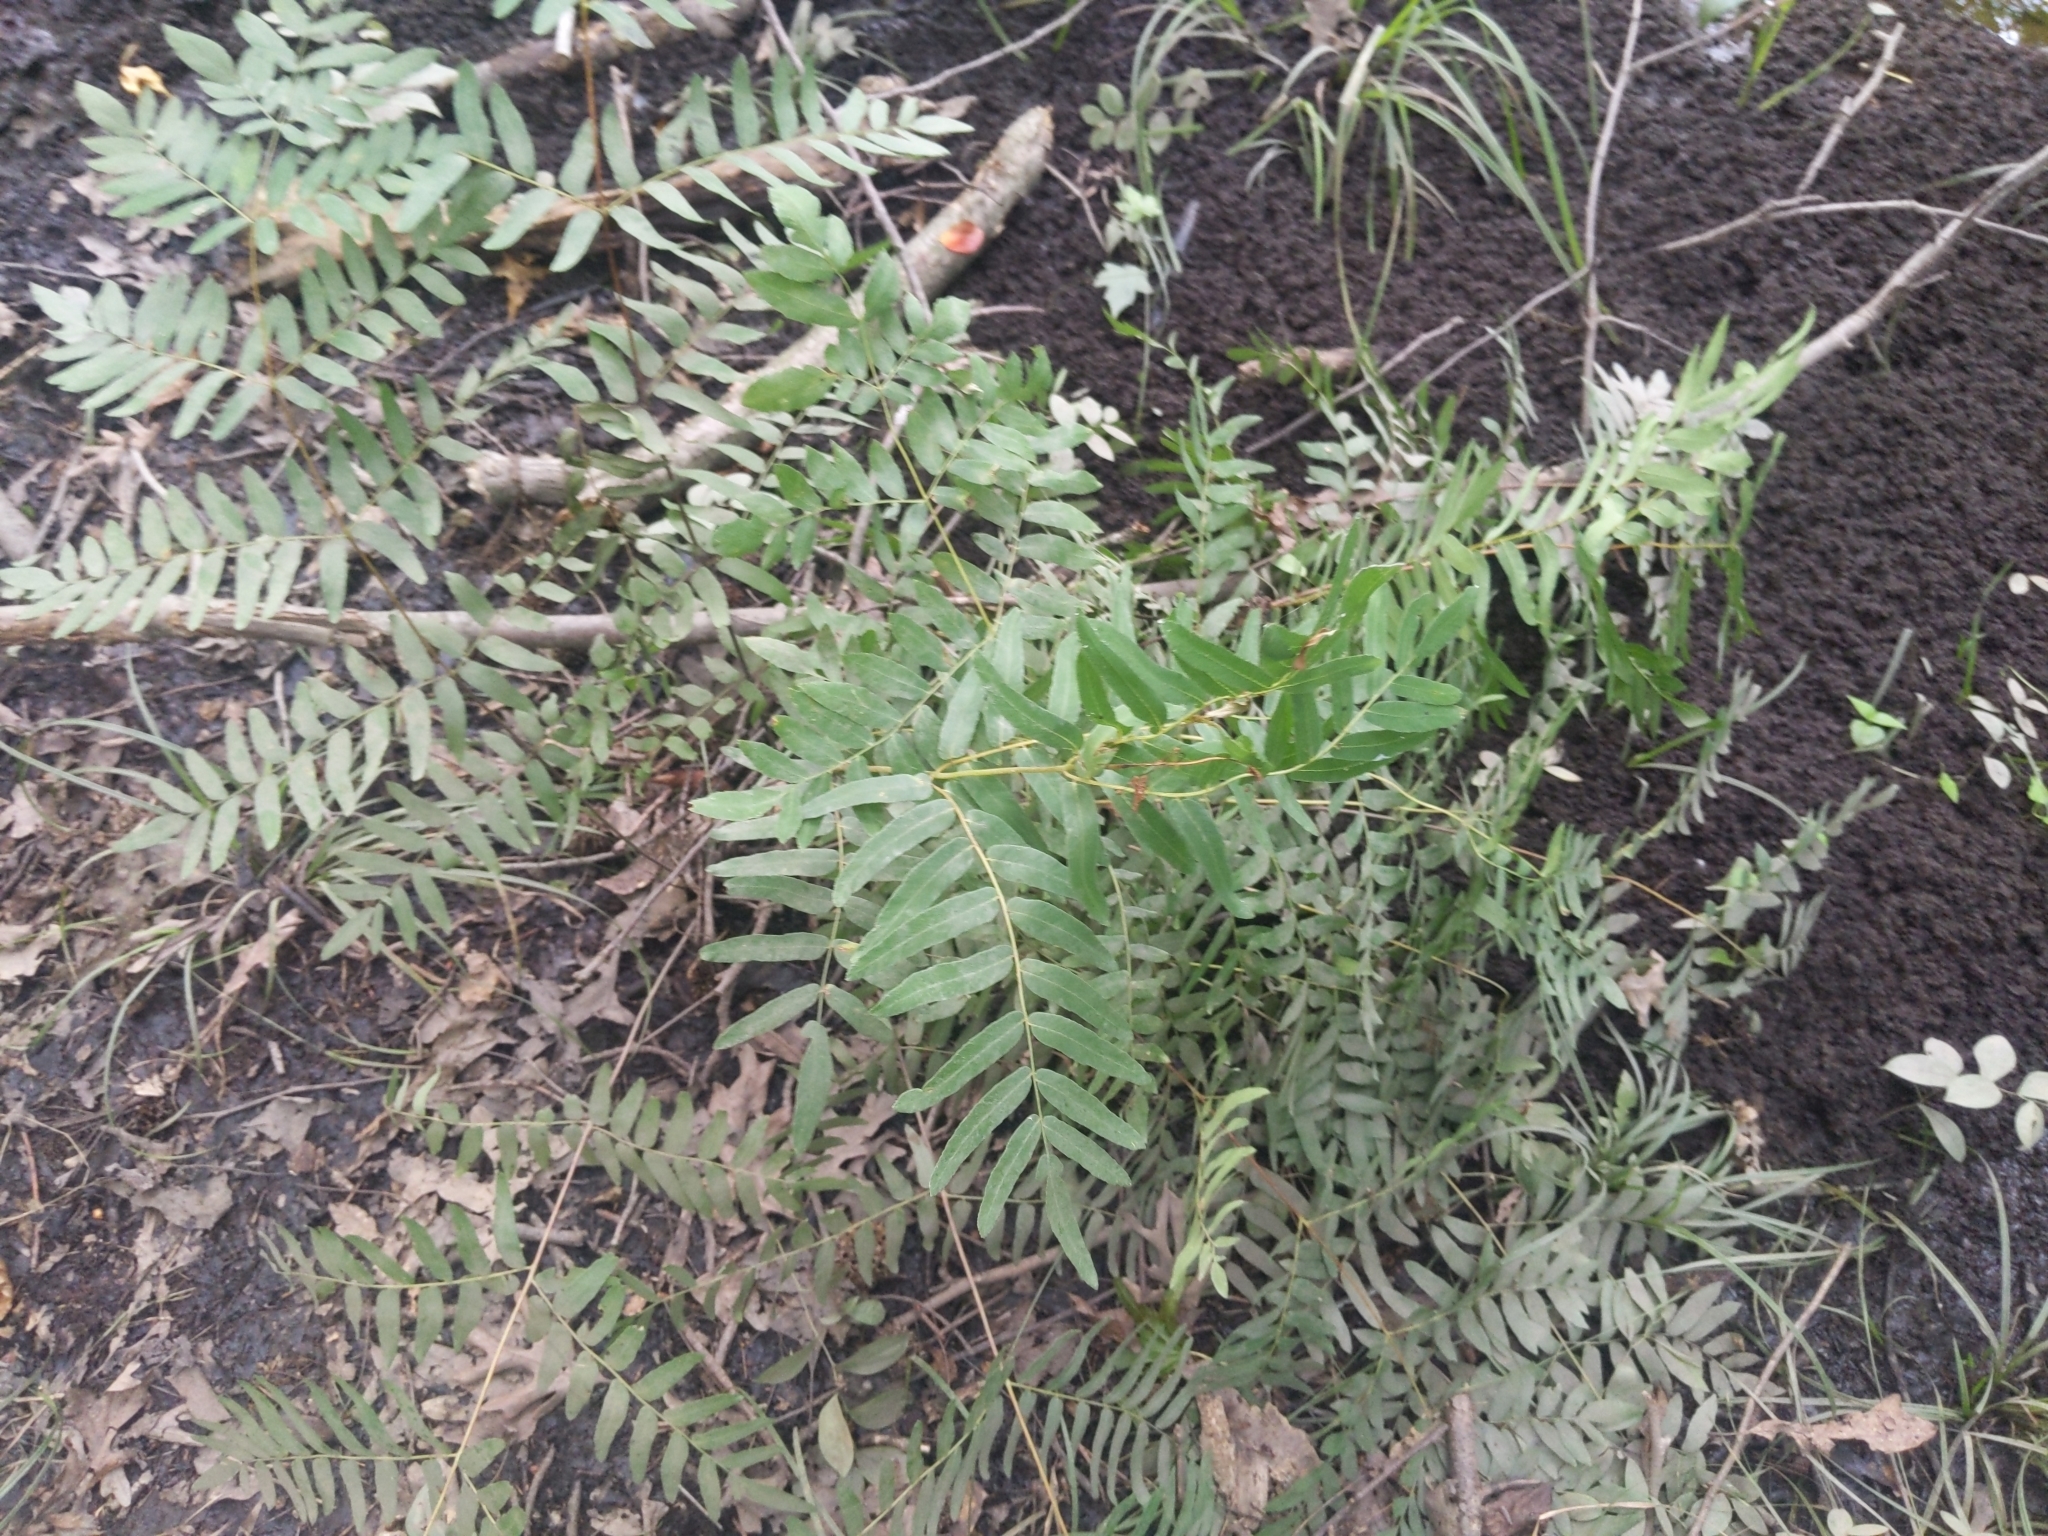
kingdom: Plantae
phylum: Tracheophyta
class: Polypodiopsida
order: Osmundales
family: Osmundaceae
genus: Osmunda
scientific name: Osmunda spectabilis
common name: American royal fern
